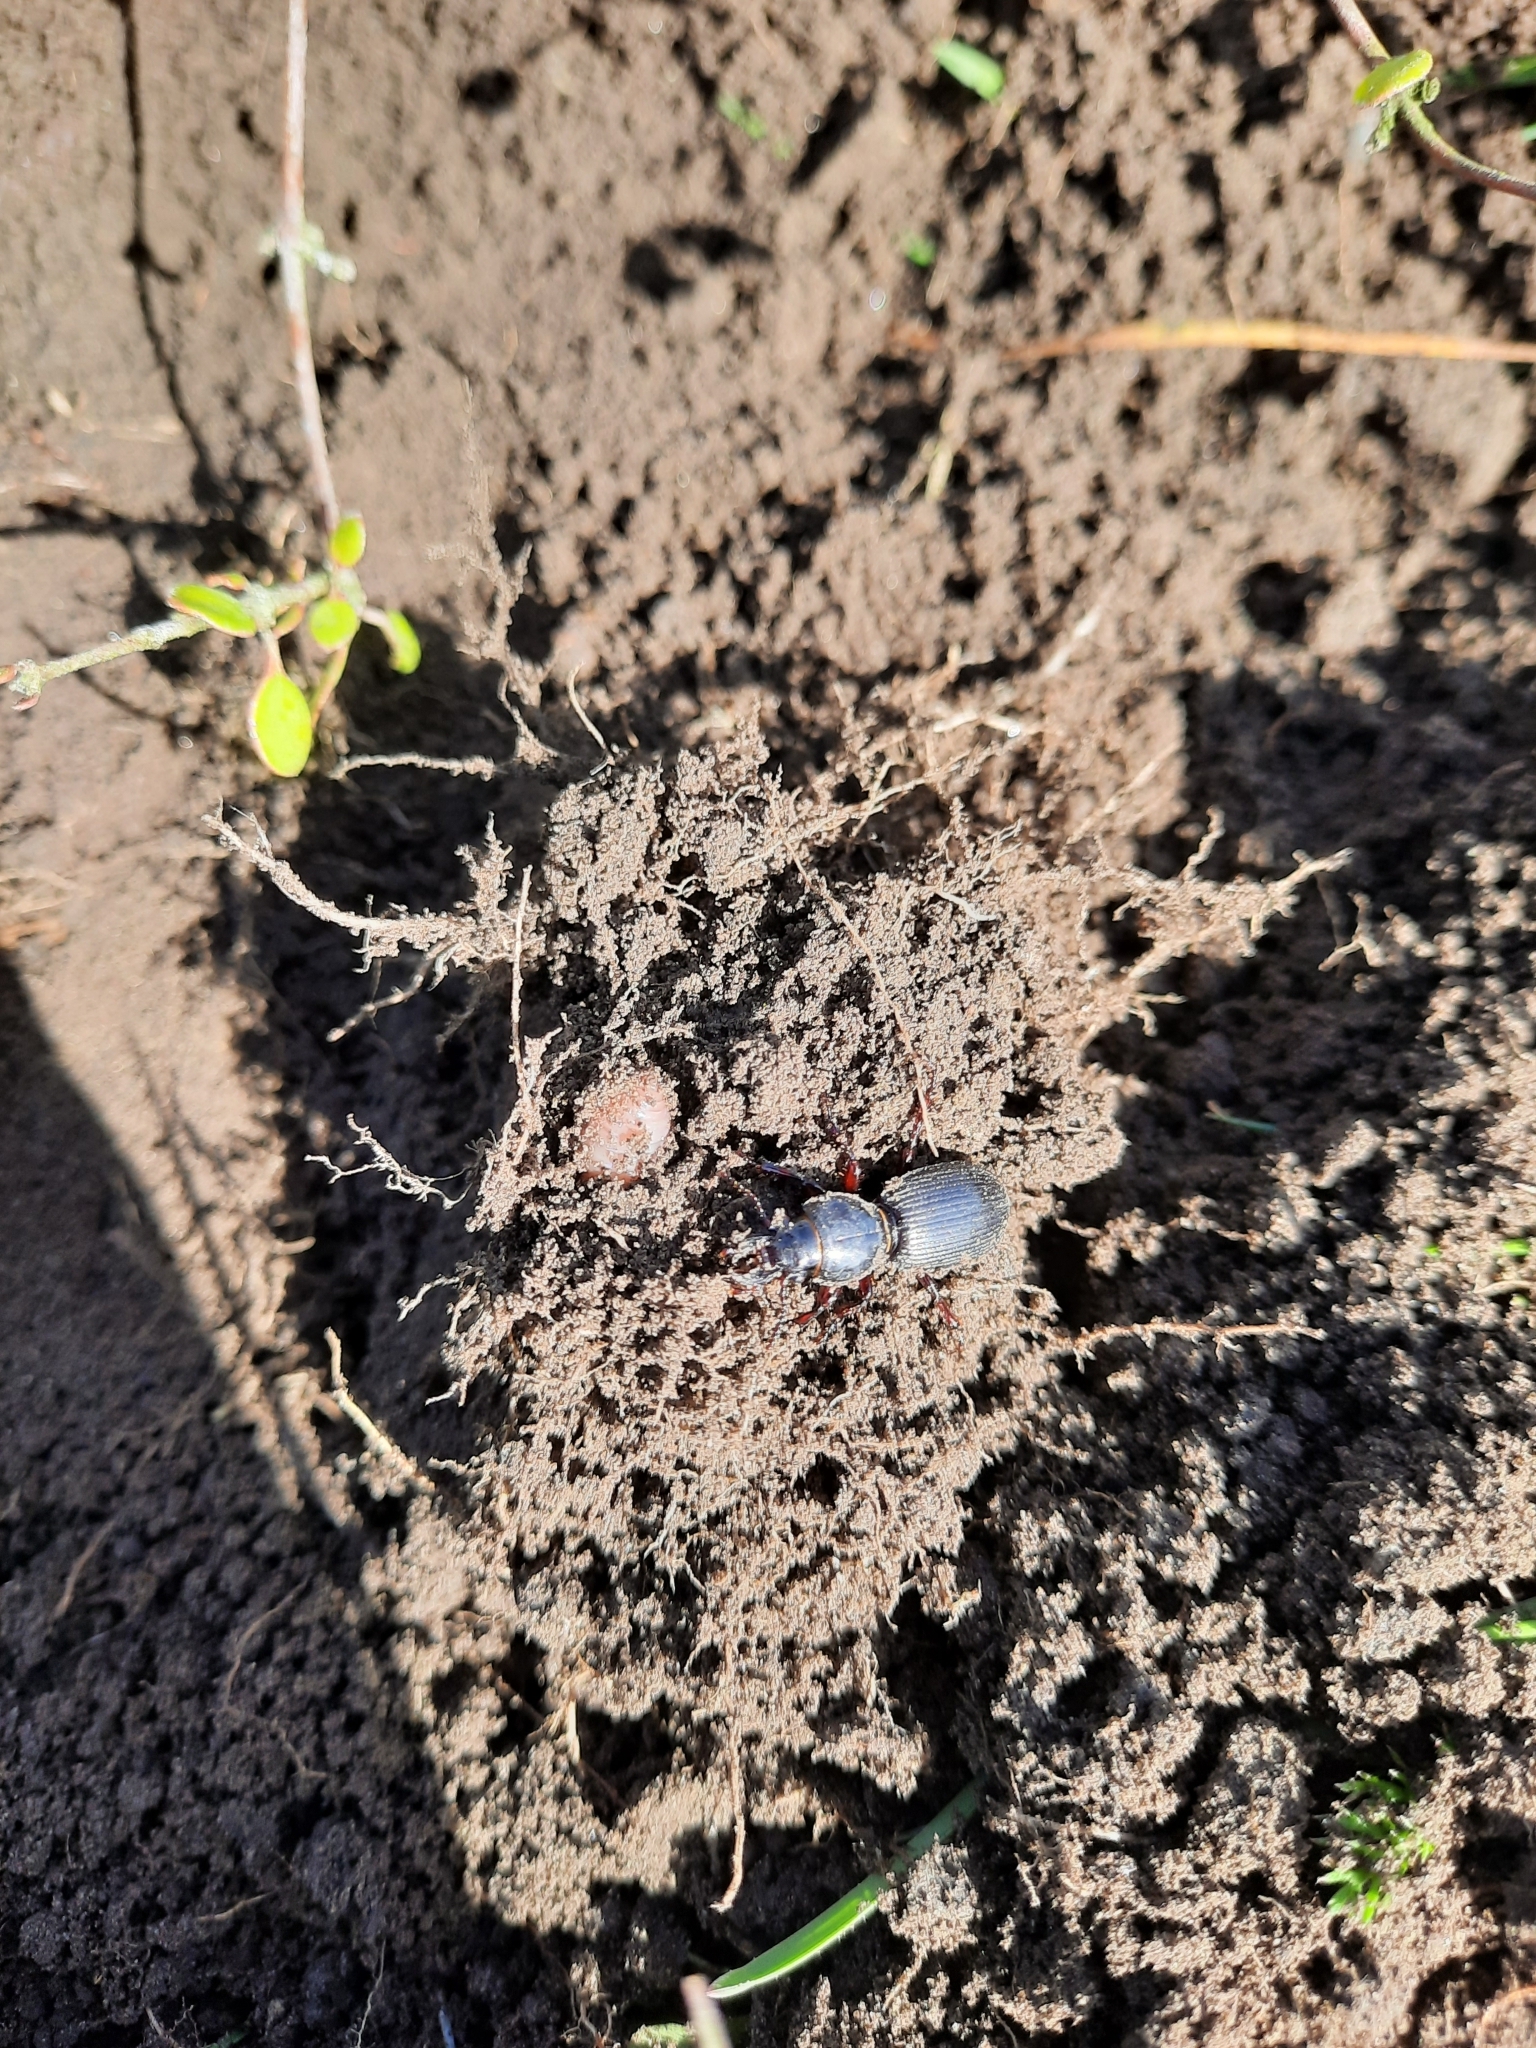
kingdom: Animalia
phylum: Arthropoda
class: Insecta
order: Coleoptera
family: Carabidae
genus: Mecodema
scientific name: Mecodema moniliferum
